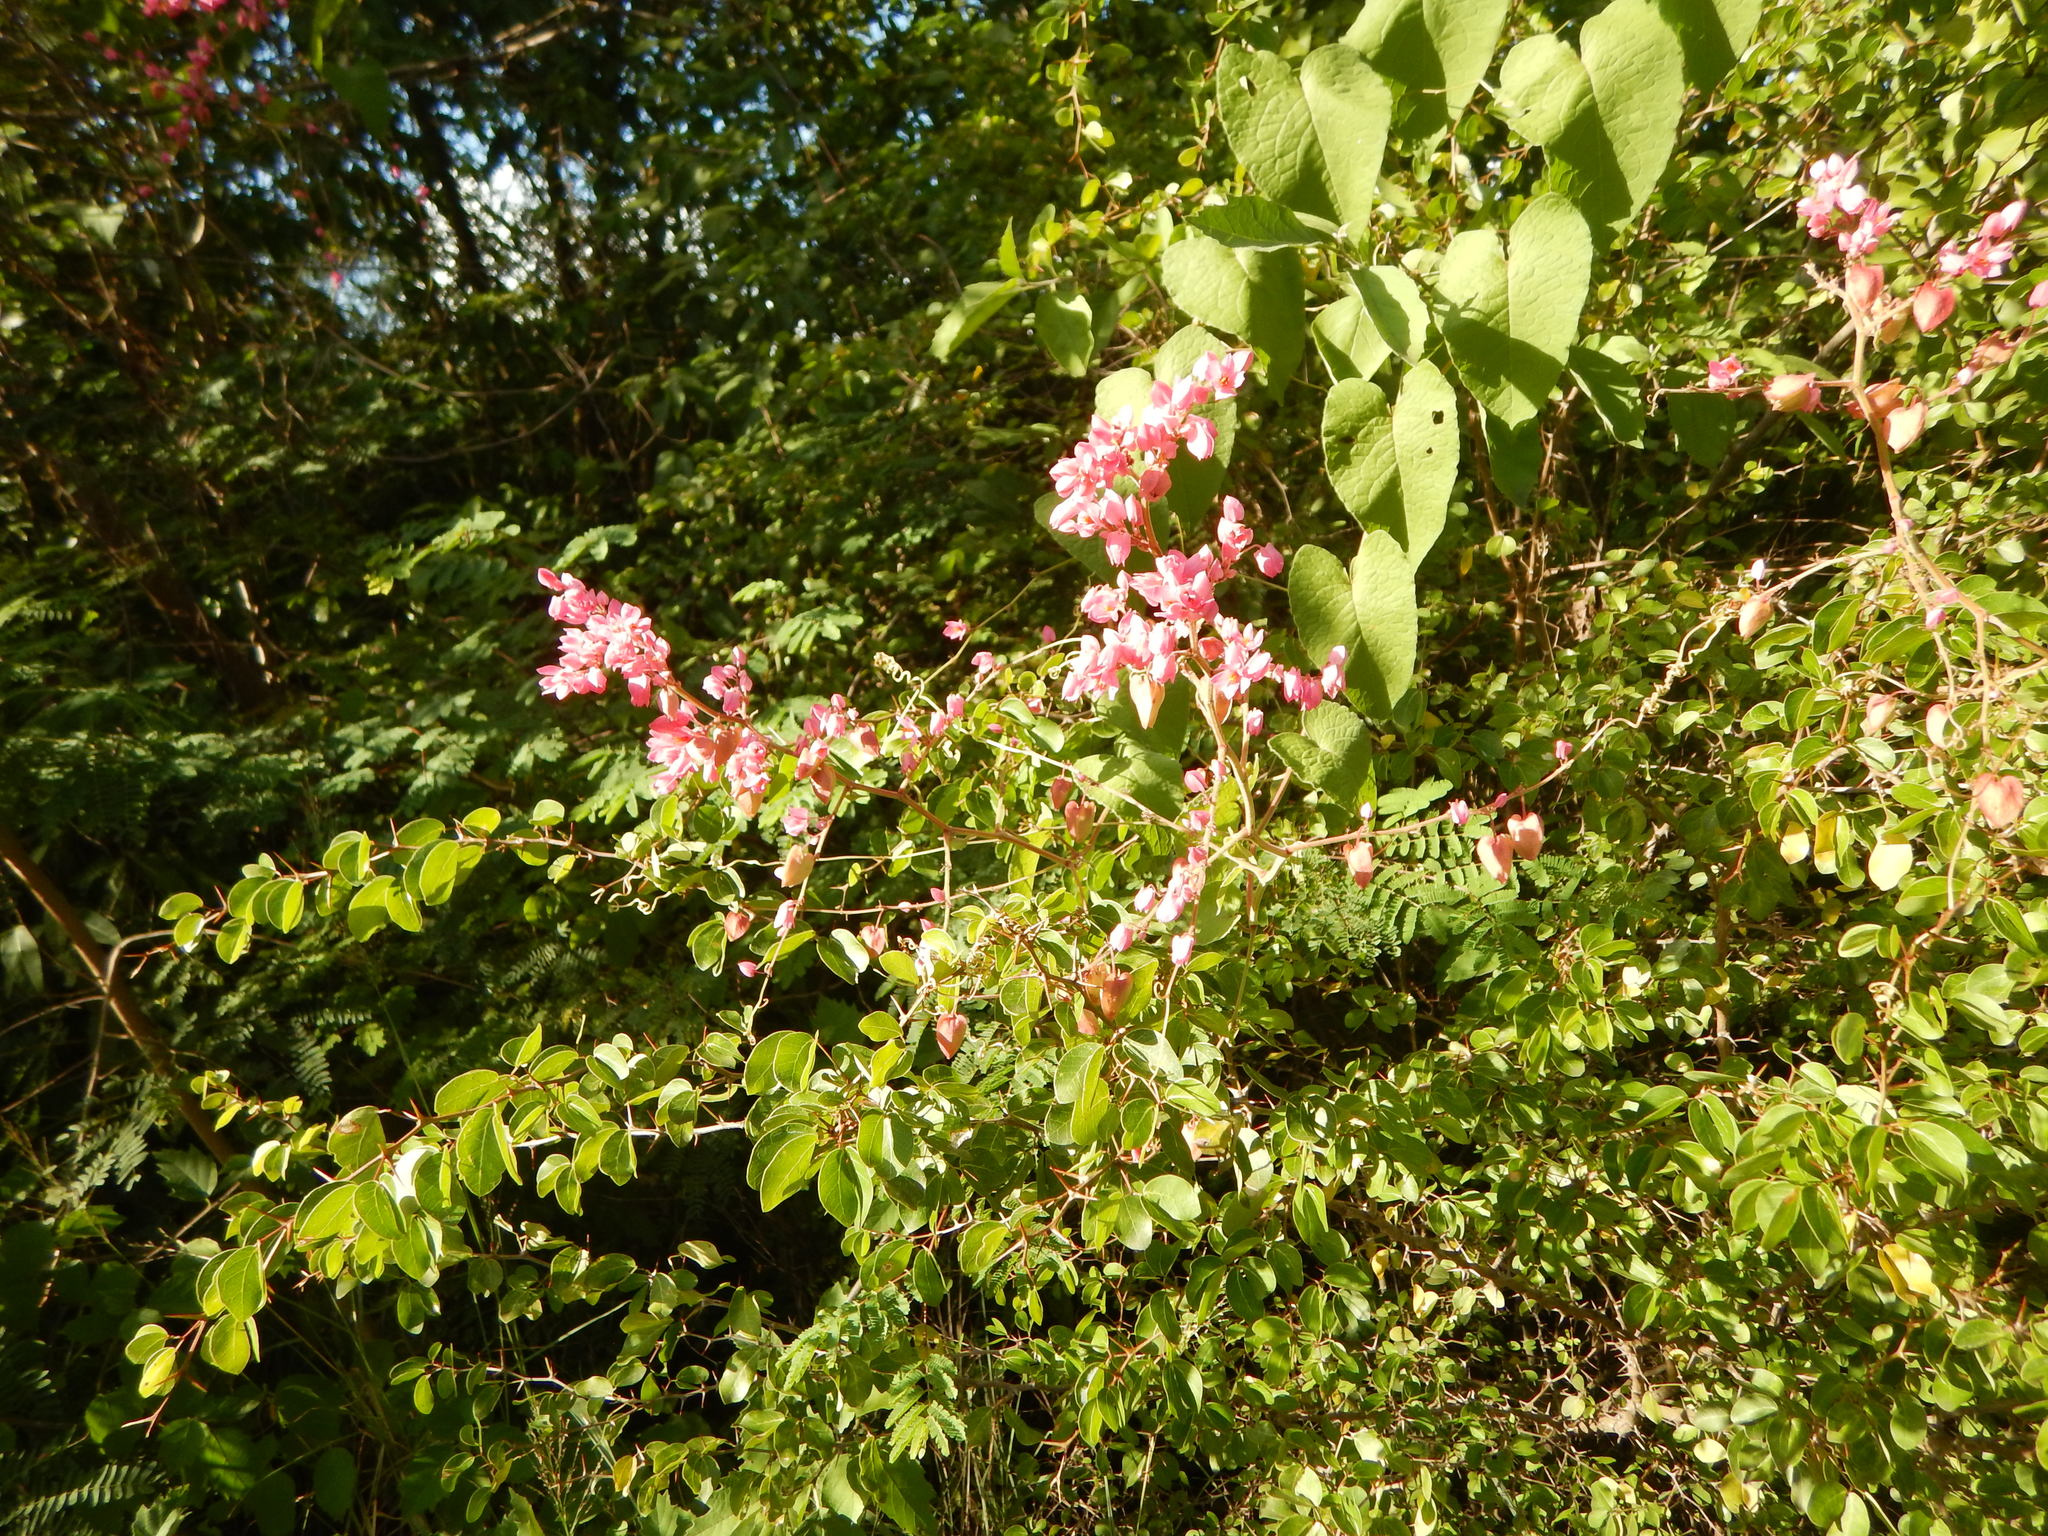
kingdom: Plantae
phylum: Tracheophyta
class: Magnoliopsida
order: Caryophyllales
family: Polygonaceae
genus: Antigonon
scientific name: Antigonon leptopus
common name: Coral vine
